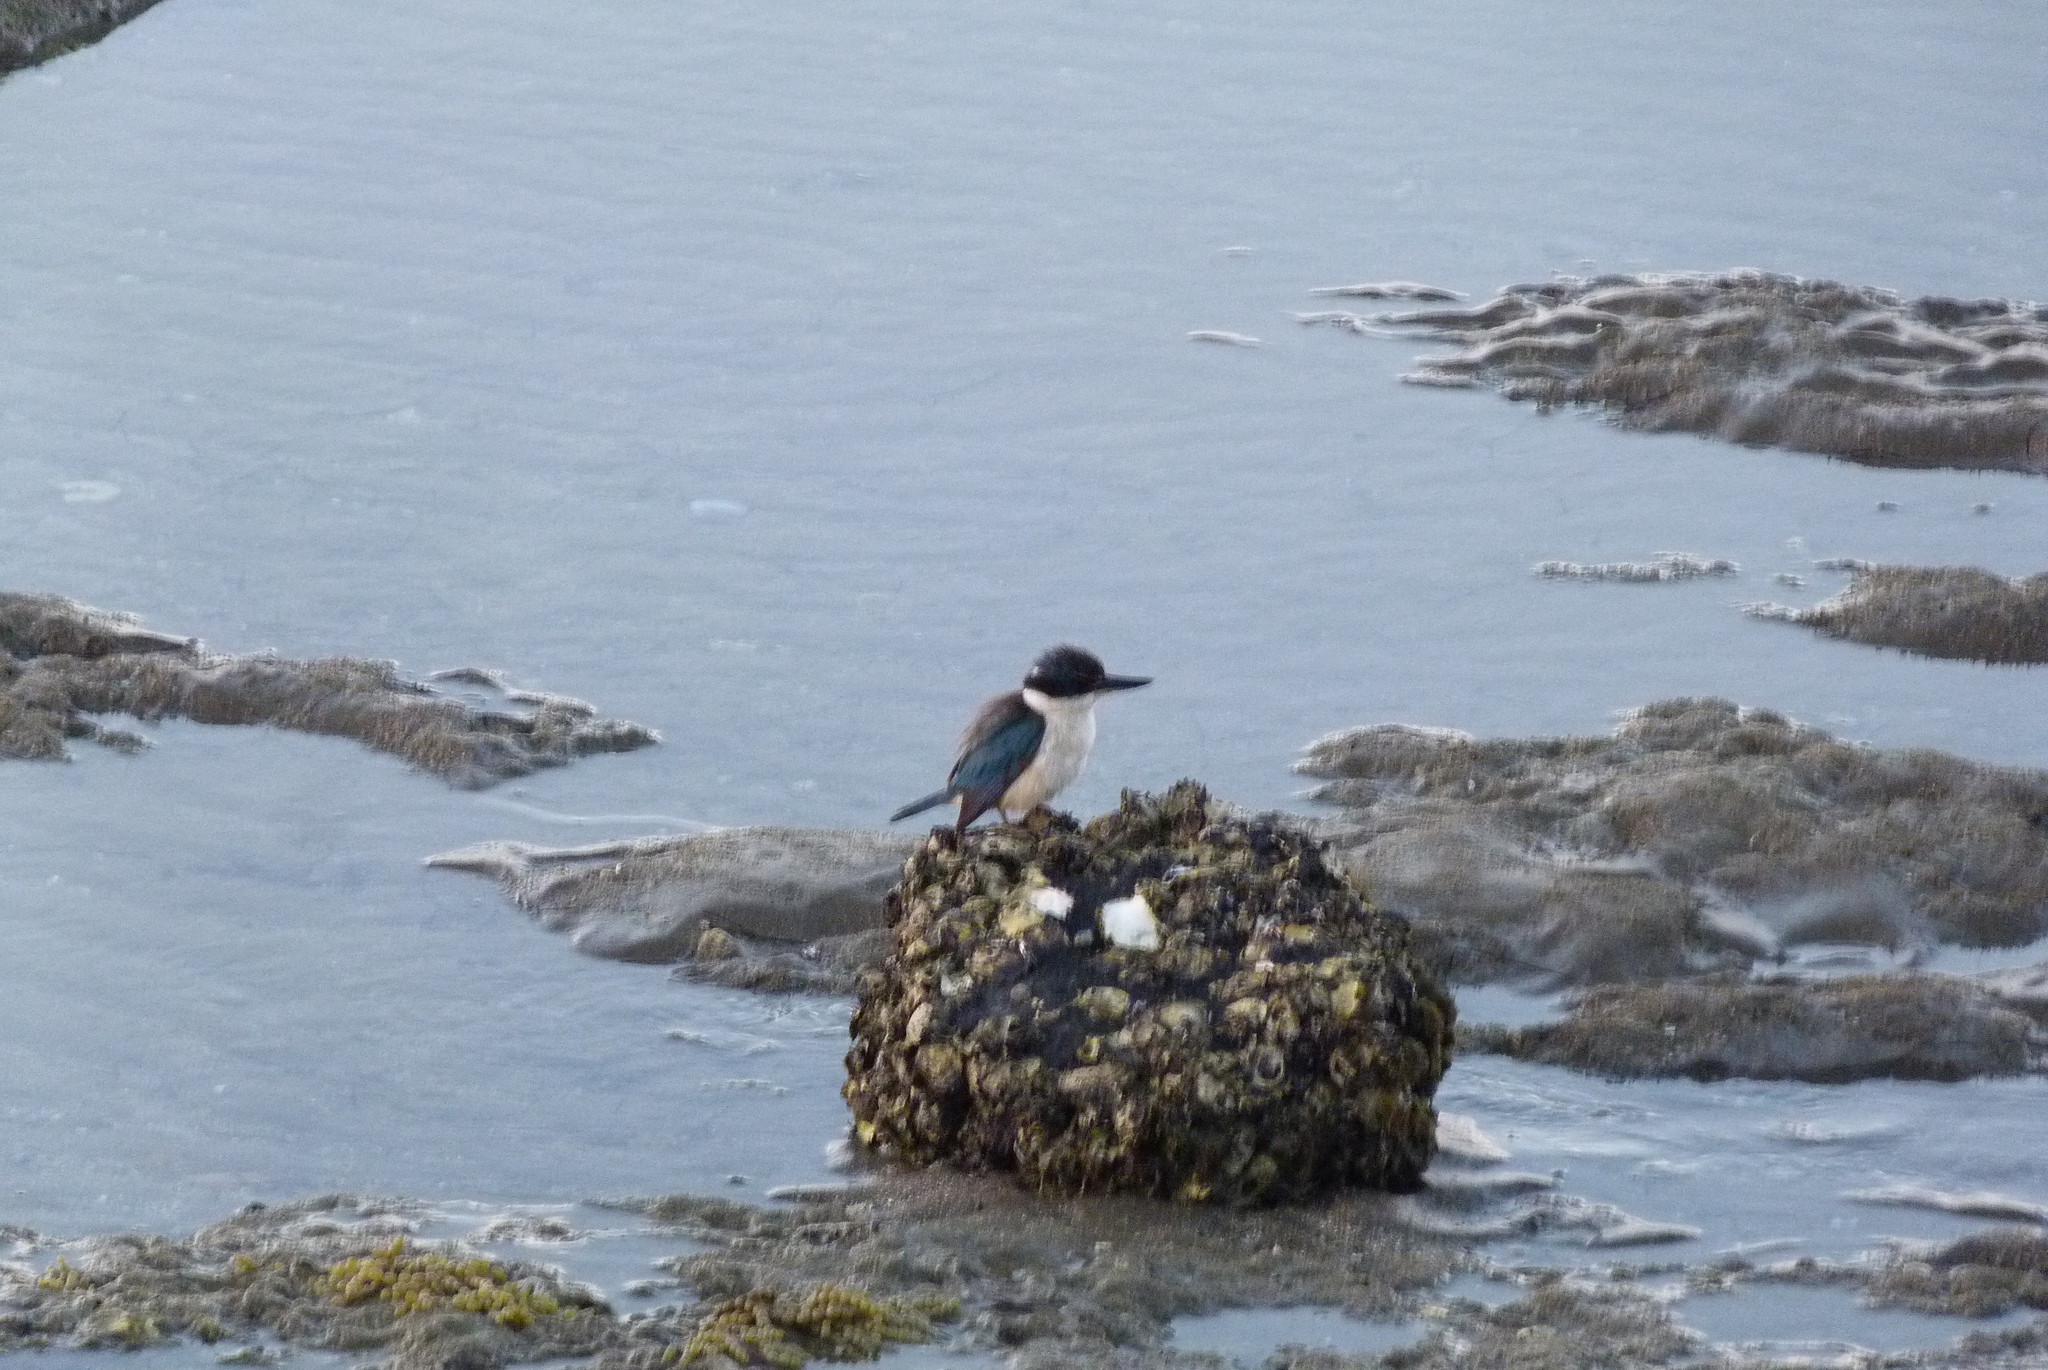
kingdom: Animalia
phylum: Chordata
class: Aves
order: Coraciiformes
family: Alcedinidae
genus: Todiramphus
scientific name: Todiramphus sanctus
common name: Sacred kingfisher
